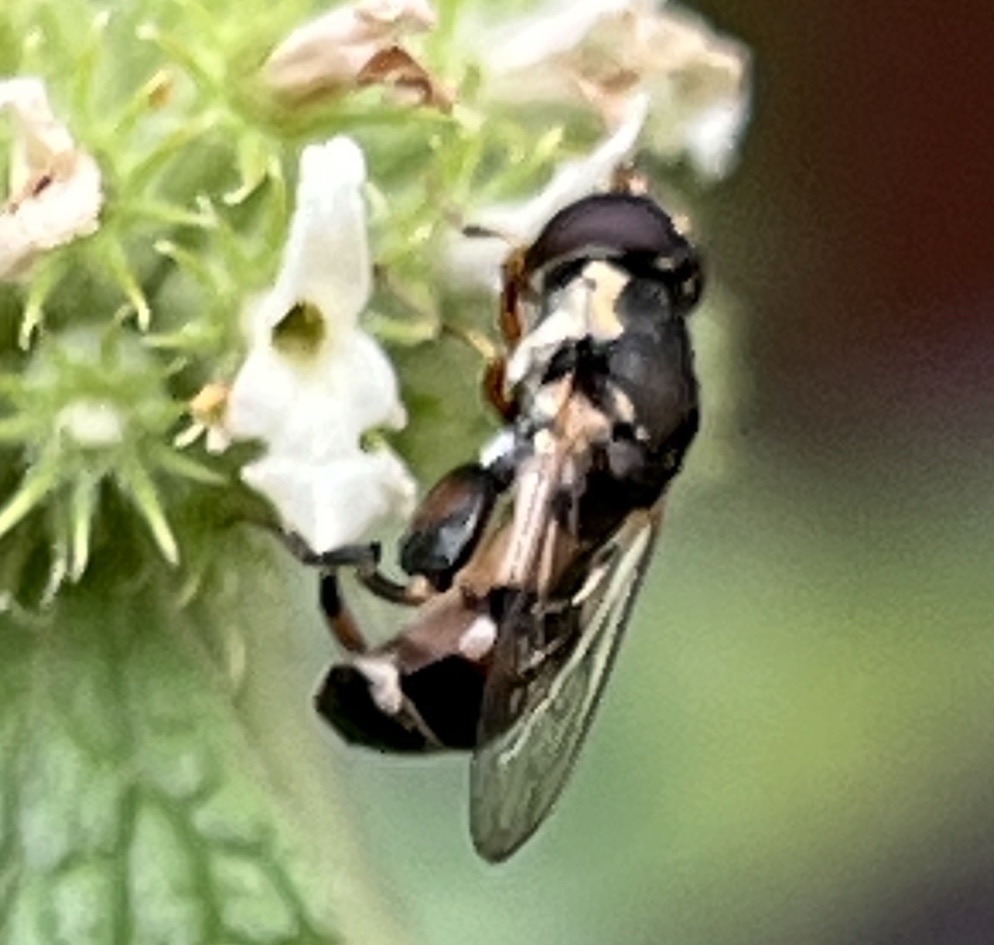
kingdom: Animalia
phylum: Arthropoda
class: Insecta
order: Diptera
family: Syrphidae
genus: Syritta
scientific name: Syritta pipiens
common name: Hover fly
